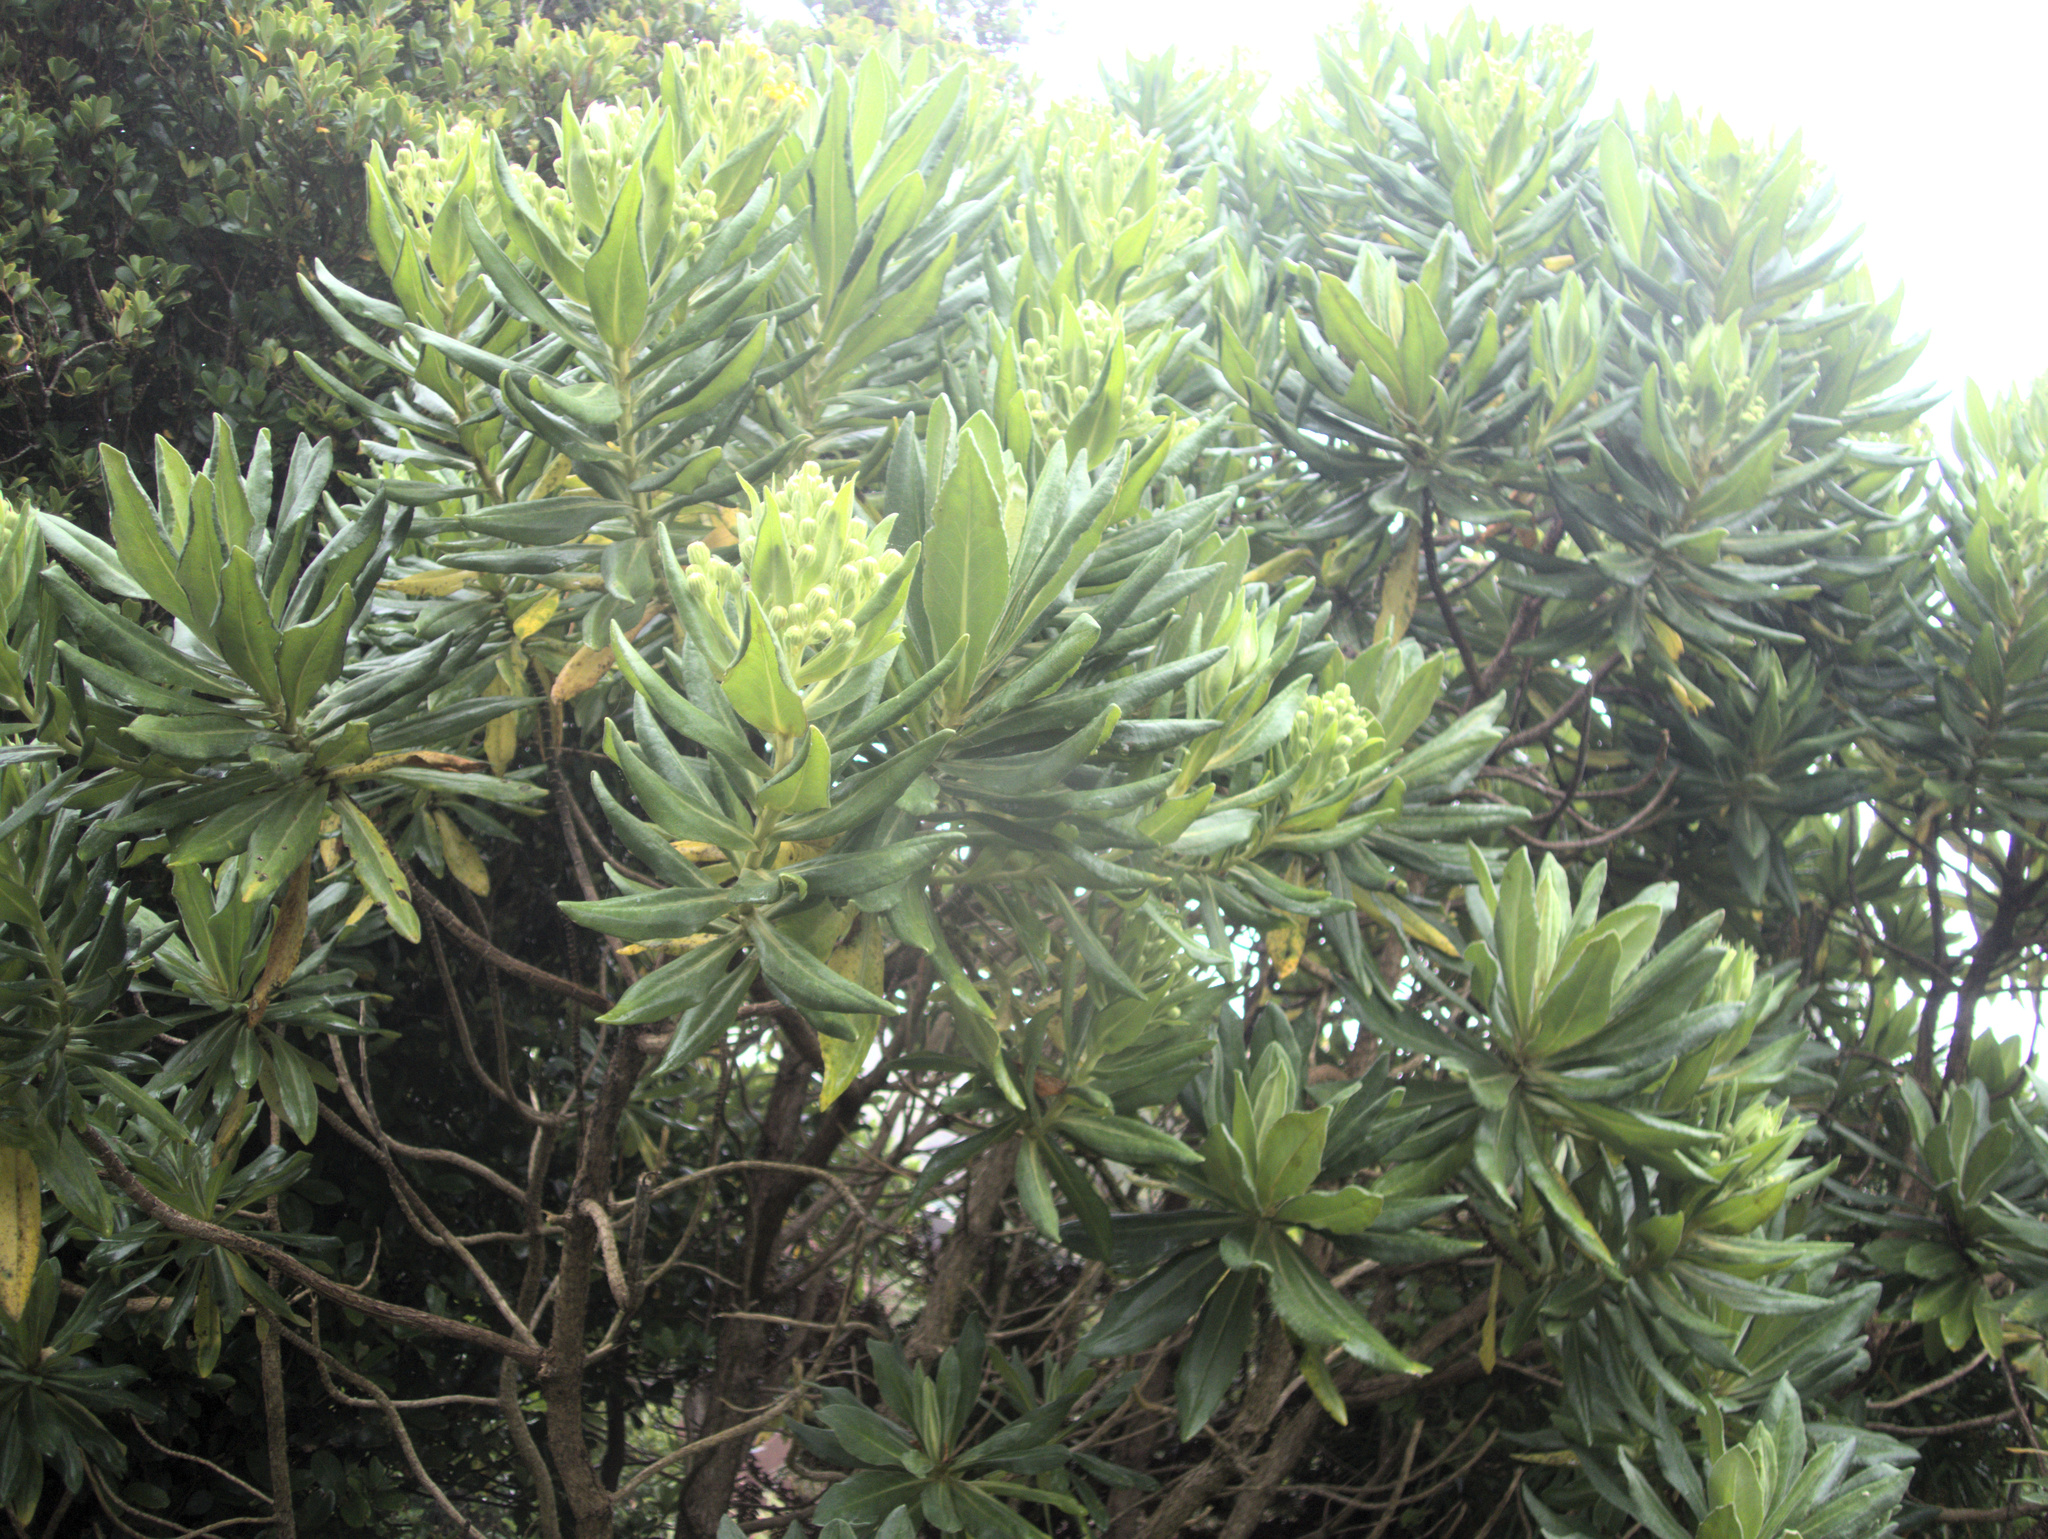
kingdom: Plantae
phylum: Tracheophyta
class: Magnoliopsida
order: Asterales
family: Asteraceae
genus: Brachyglottis
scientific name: Brachyglottis huntii
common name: Chatham island christmas tree
